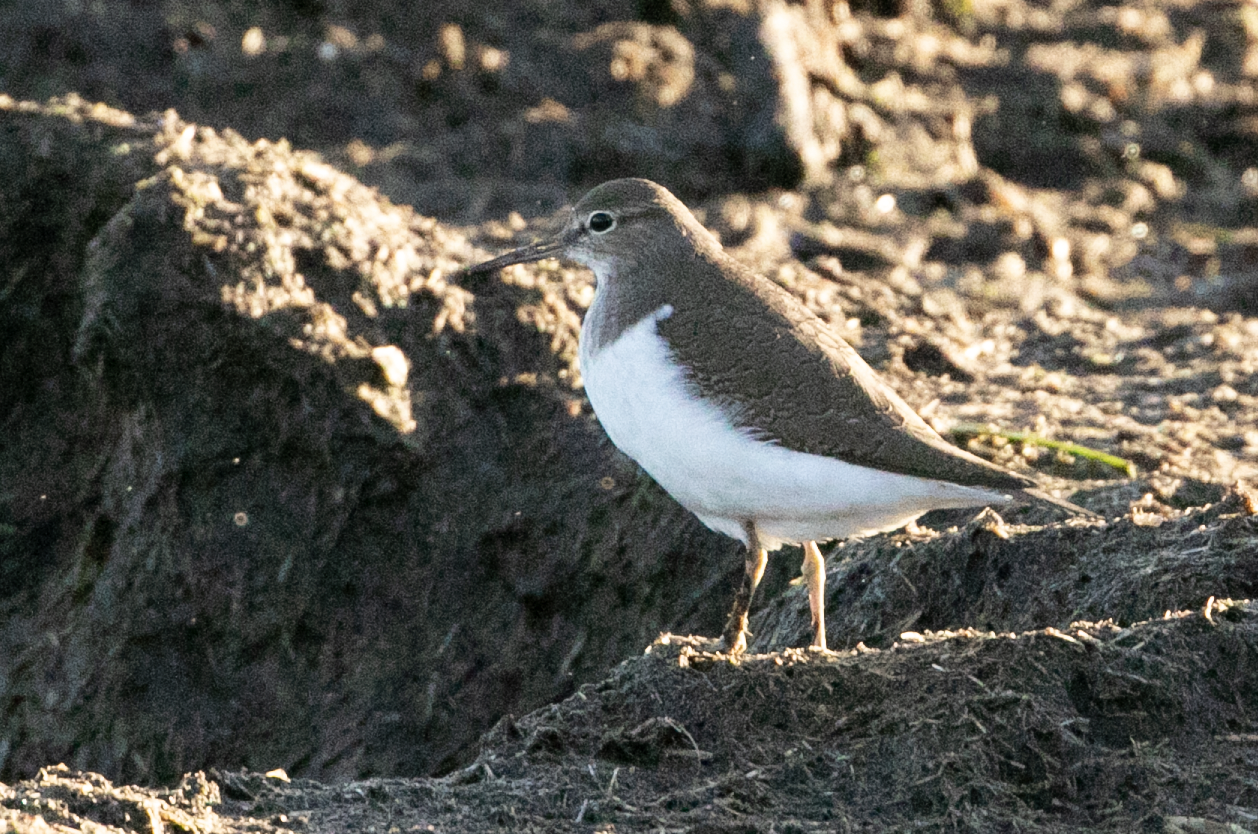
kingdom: Animalia
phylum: Chordata
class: Aves
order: Charadriiformes
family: Scolopacidae
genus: Actitis
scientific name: Actitis hypoleucos
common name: Common sandpiper
